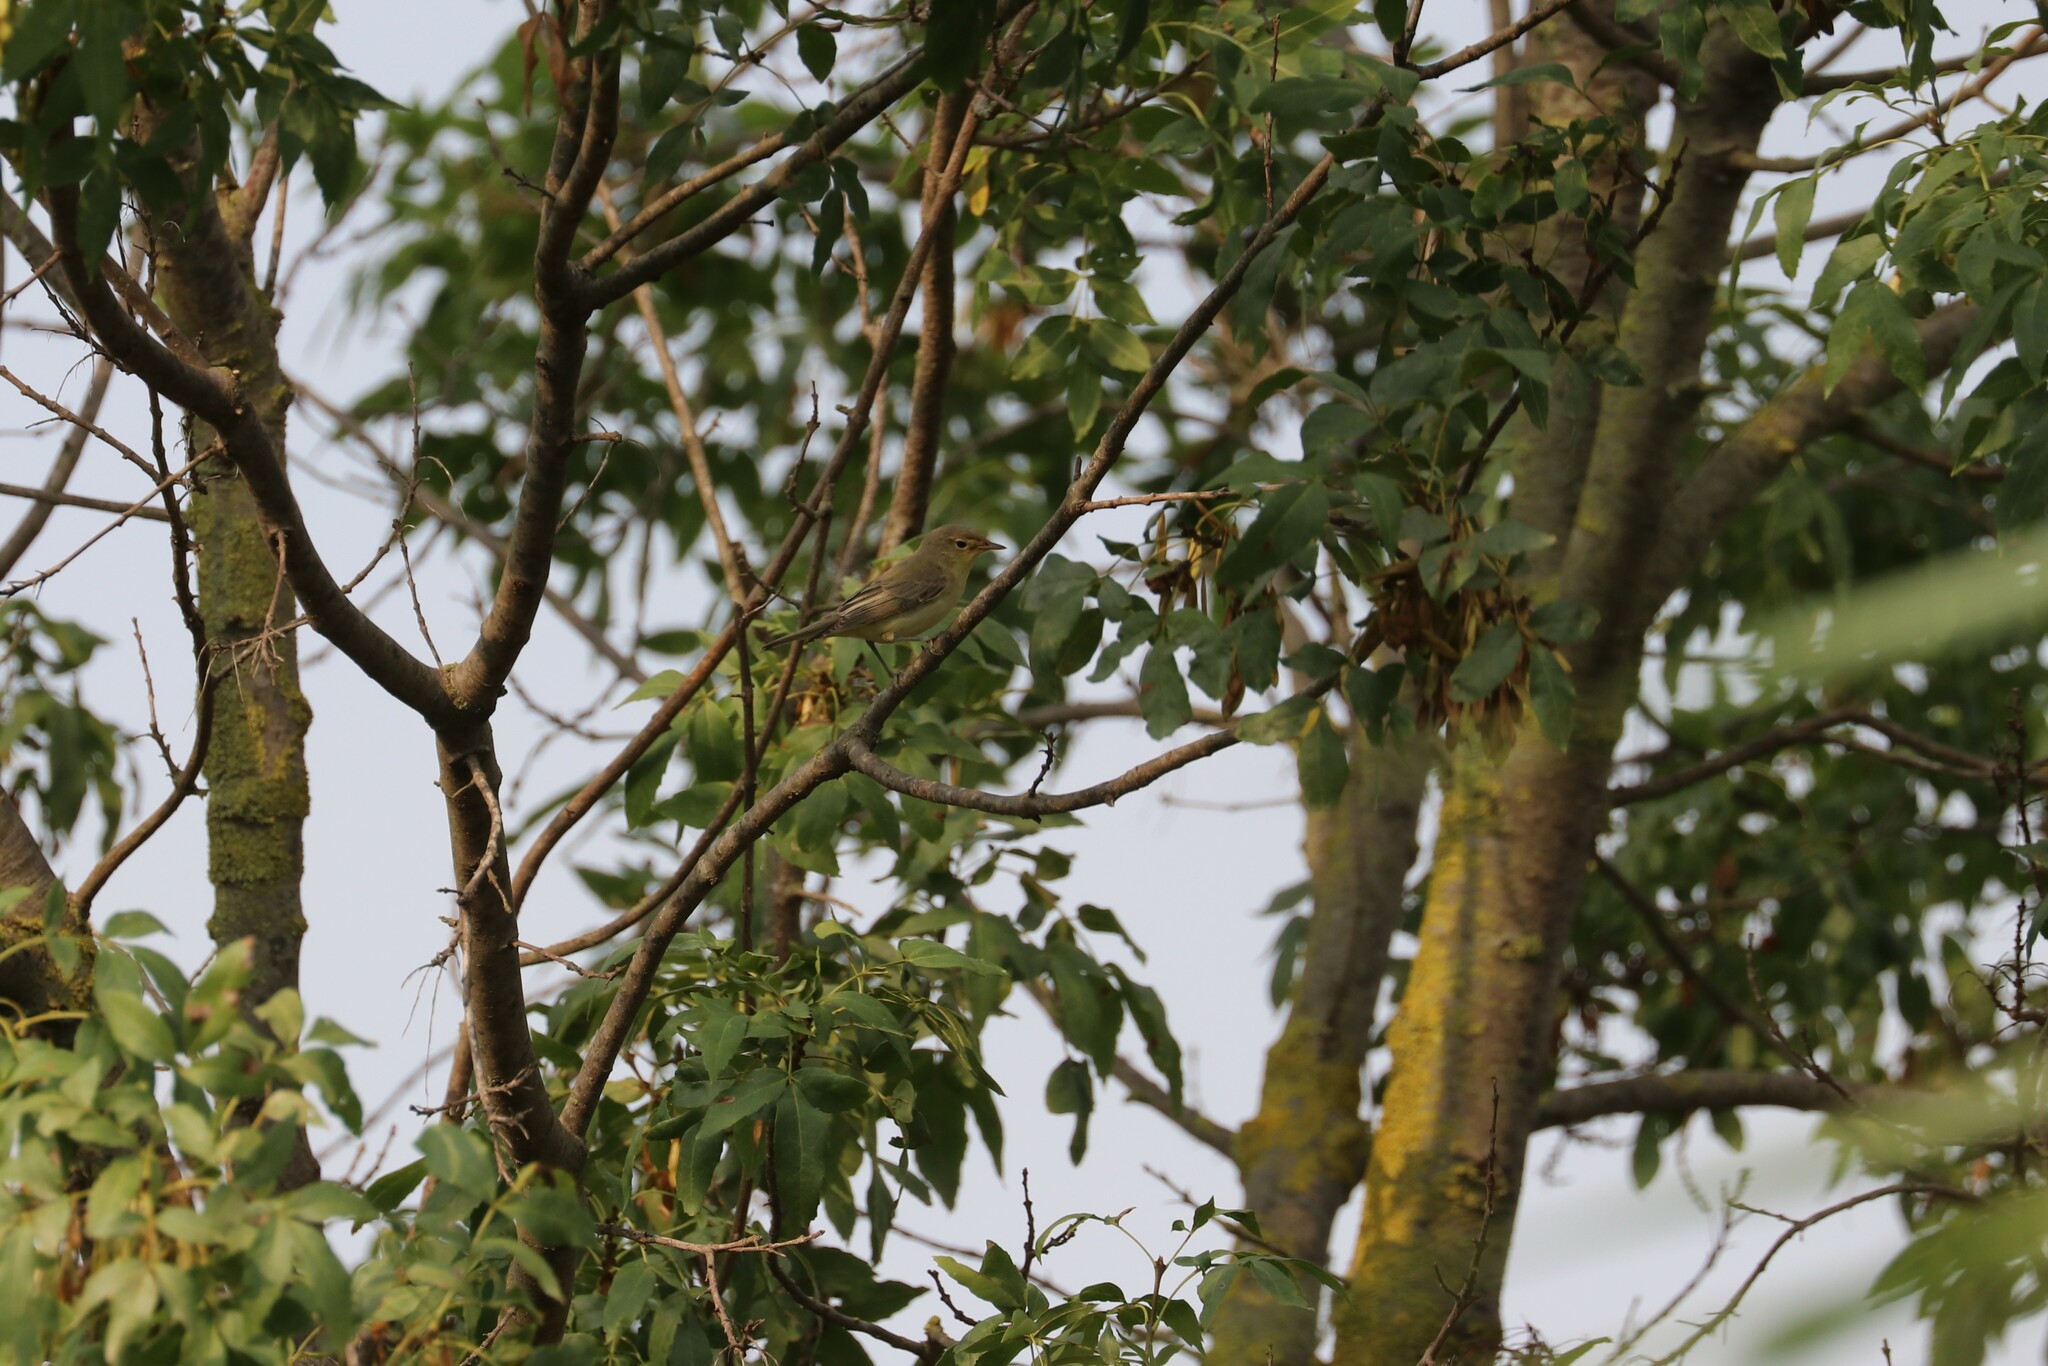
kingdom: Animalia
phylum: Chordata
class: Aves
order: Passeriformes
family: Phylloscopidae
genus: Phylloscopus
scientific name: Phylloscopus trochilus
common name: Willow warbler
